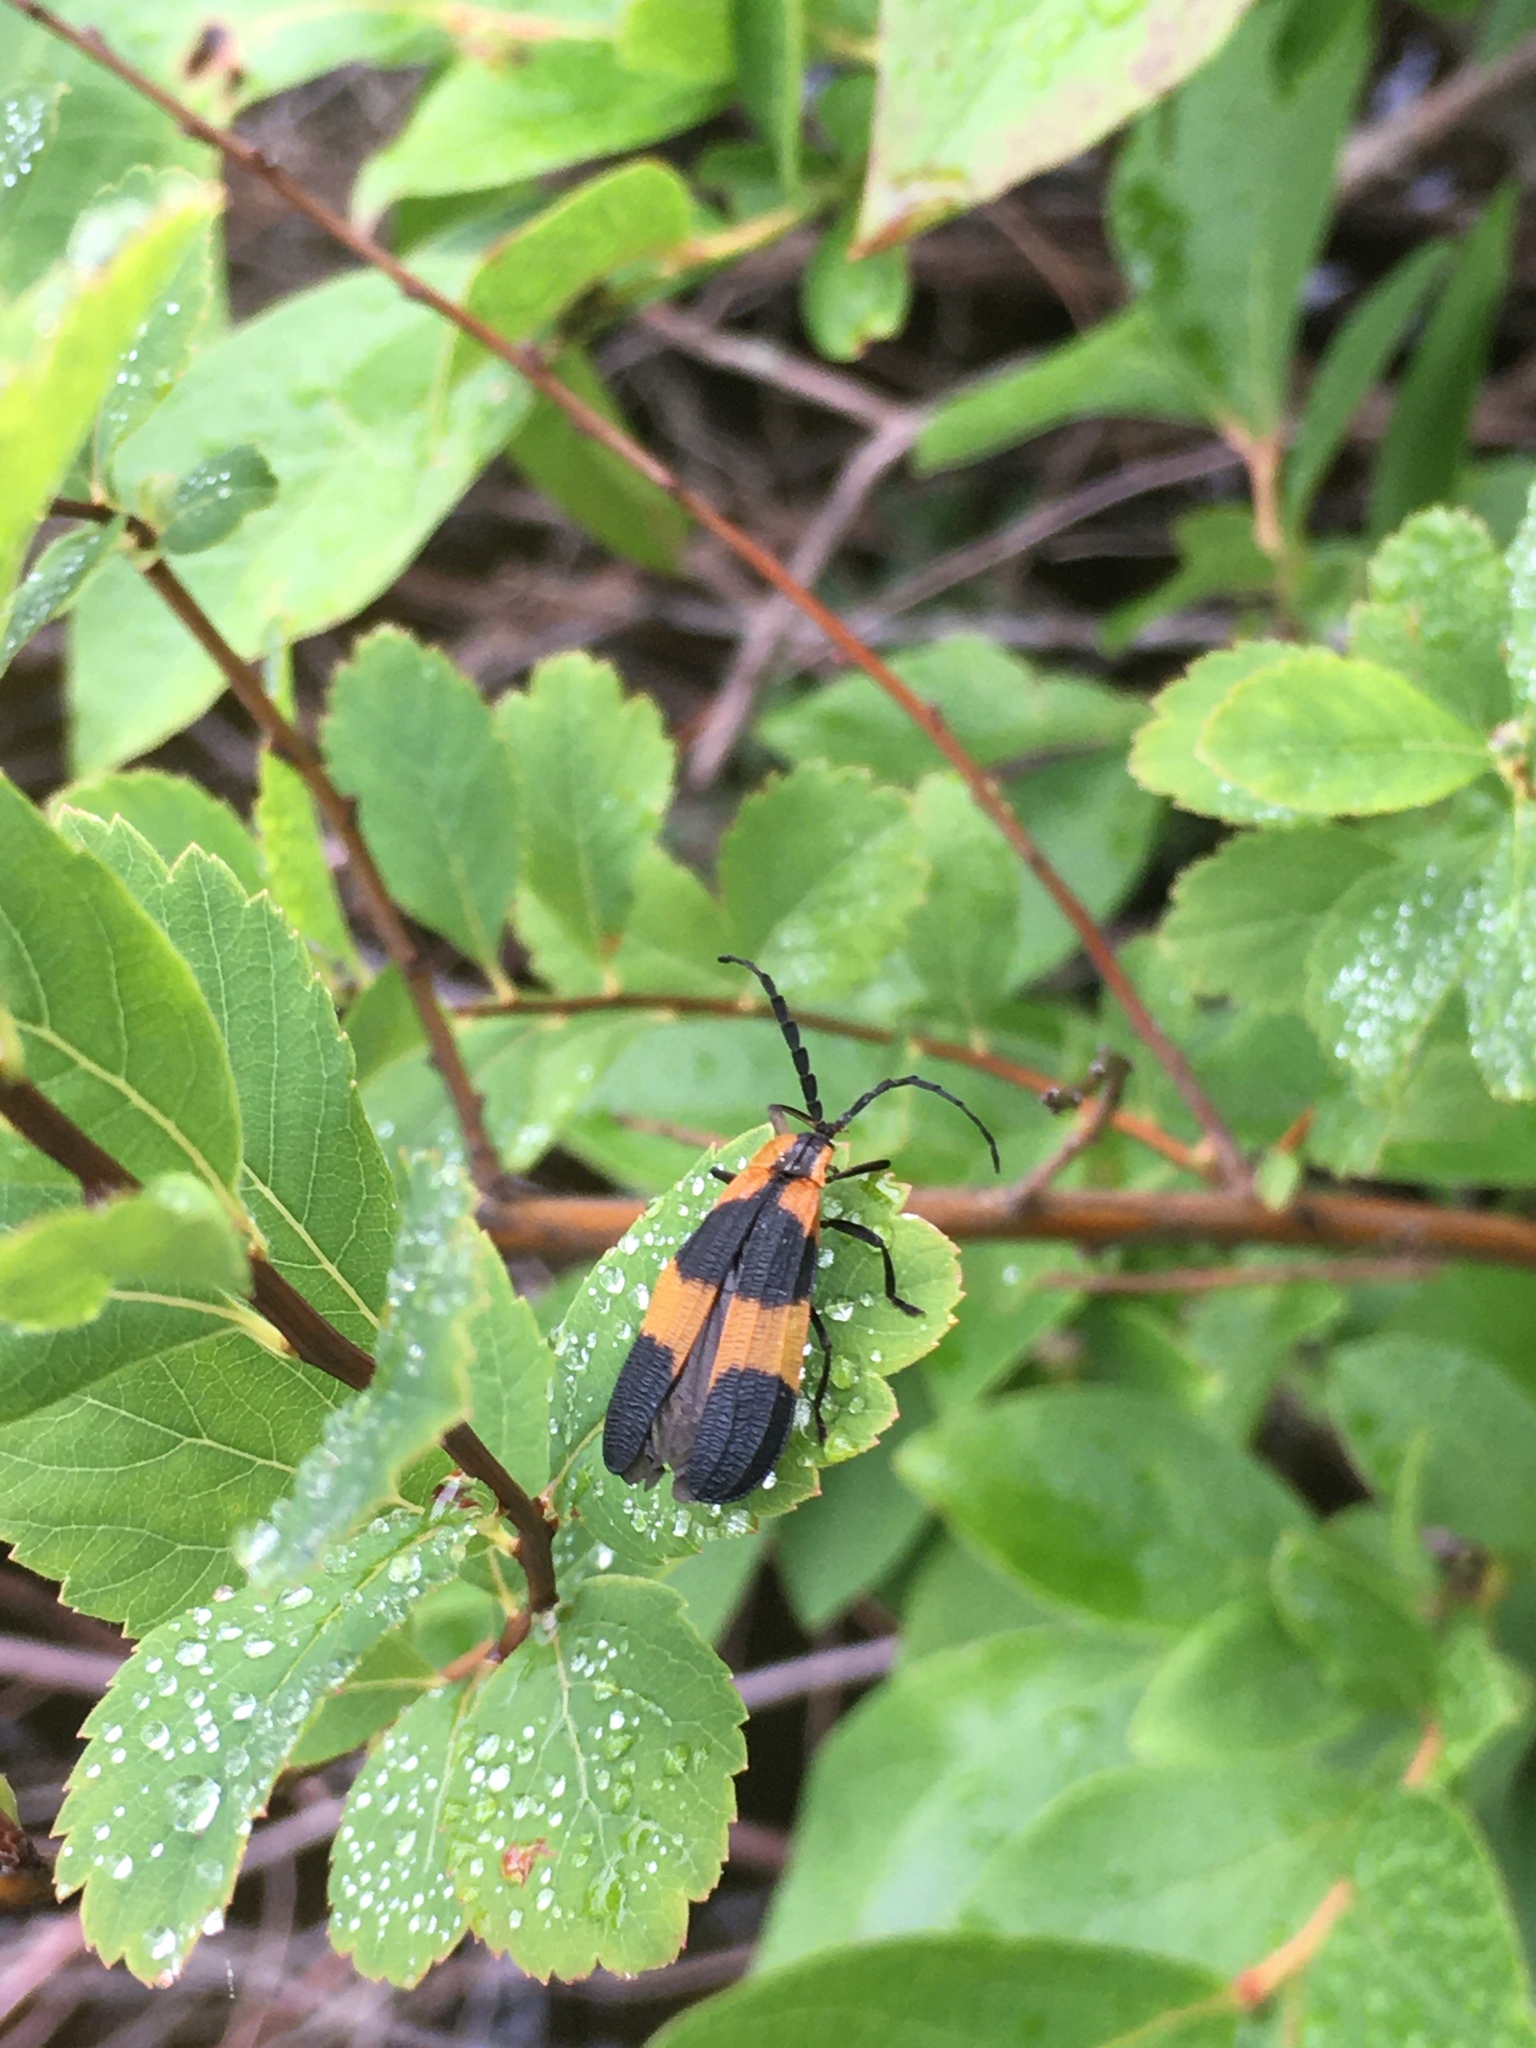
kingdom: Animalia
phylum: Arthropoda
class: Insecta
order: Coleoptera
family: Lycidae
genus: Calopteron
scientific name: Calopteron reticulatum
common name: Banded net-winged beetle
